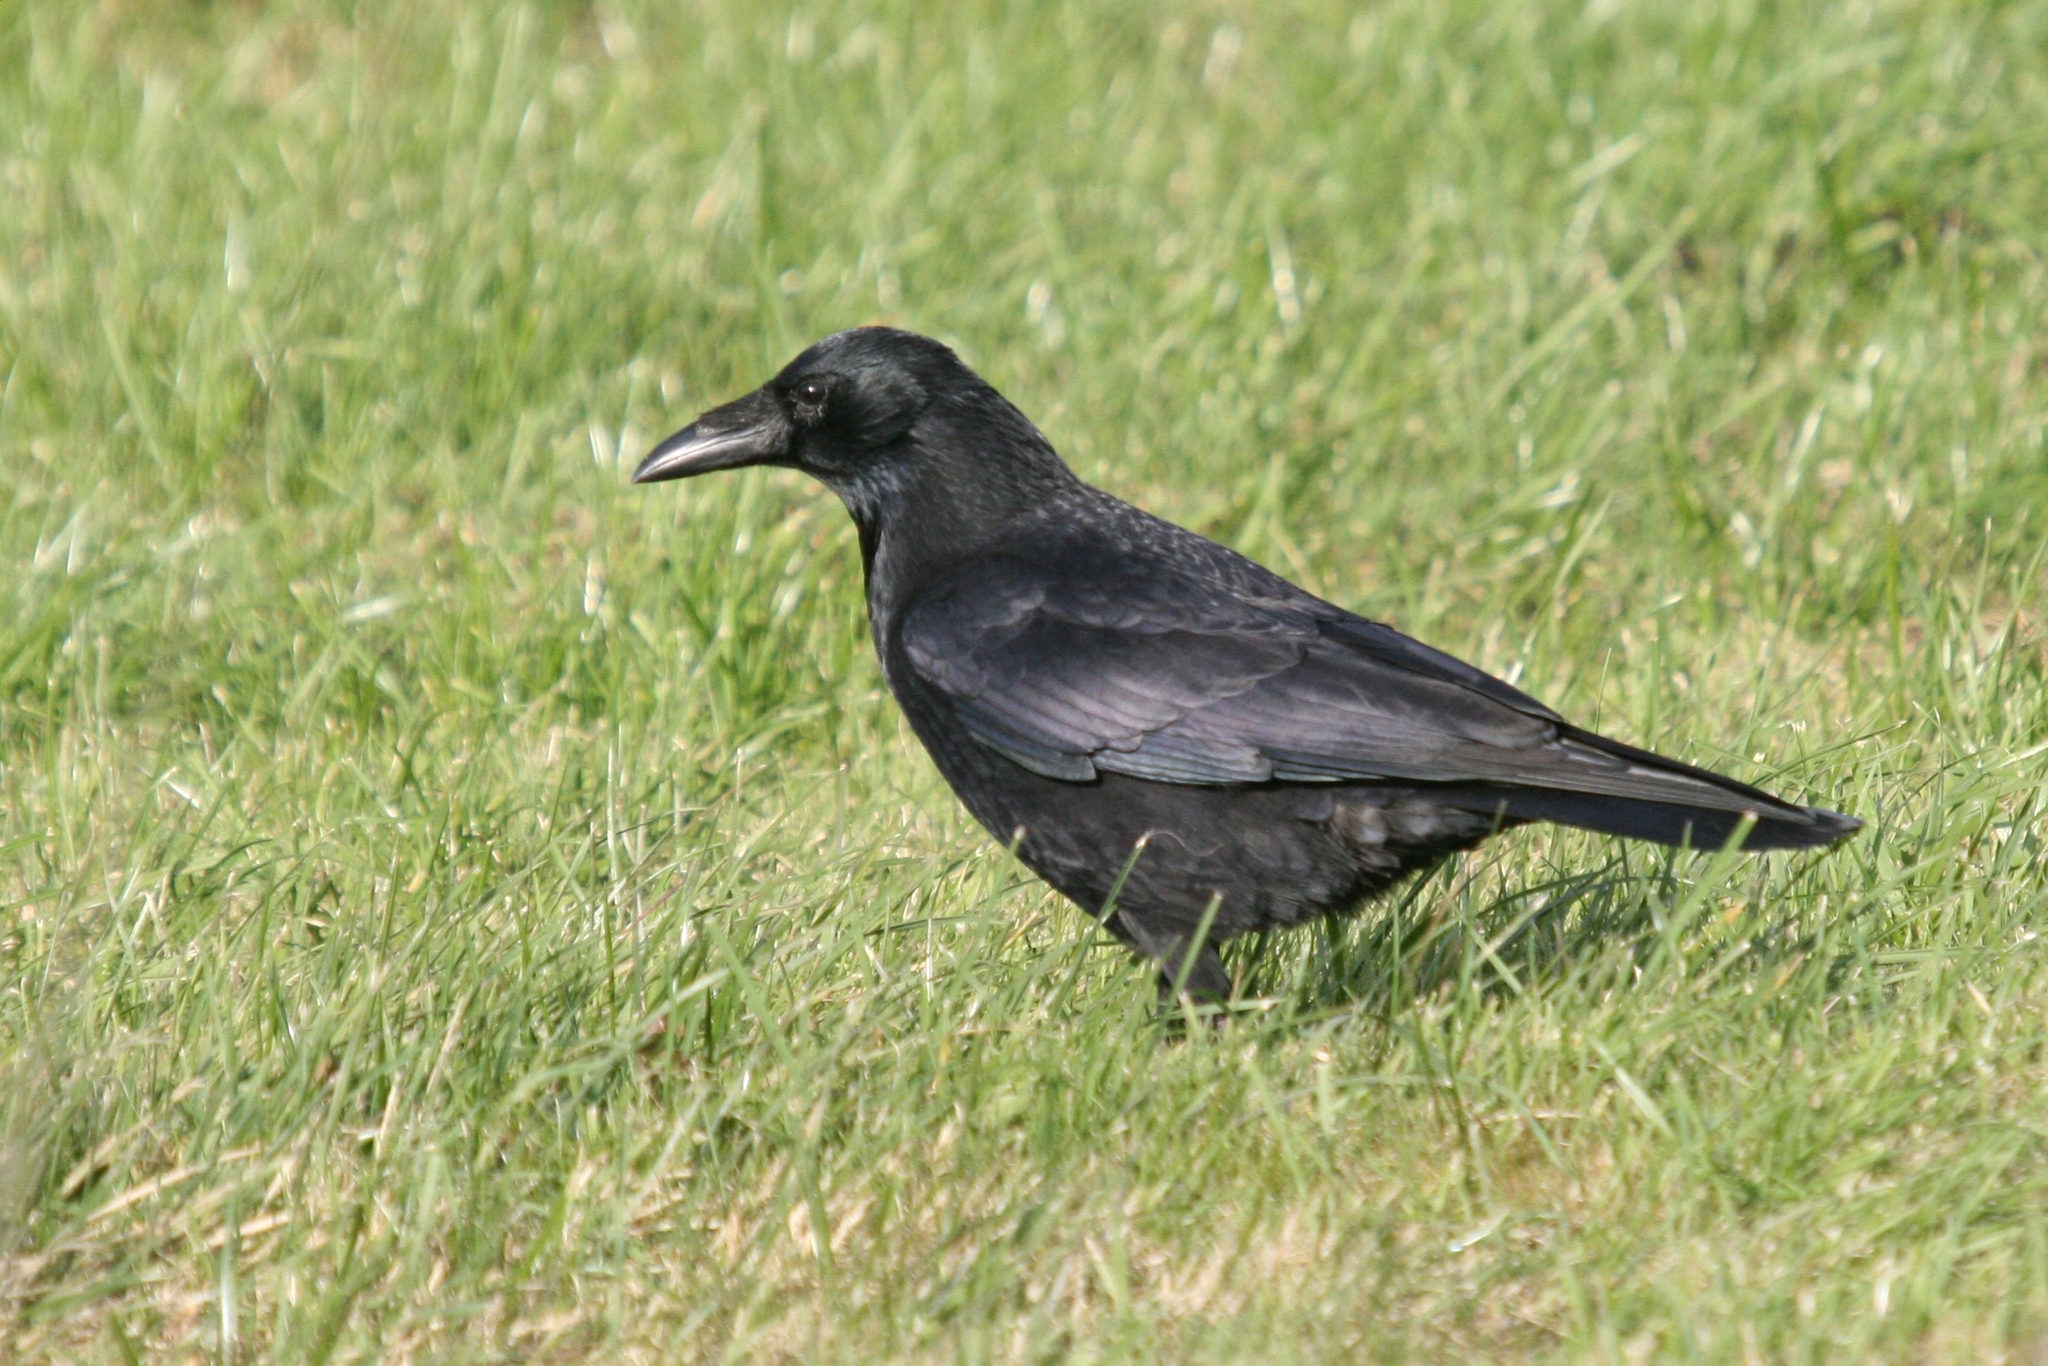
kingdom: Animalia
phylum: Chordata
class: Aves
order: Passeriformes
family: Corvidae
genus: Corvus
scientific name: Corvus corone
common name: Carrion crow
